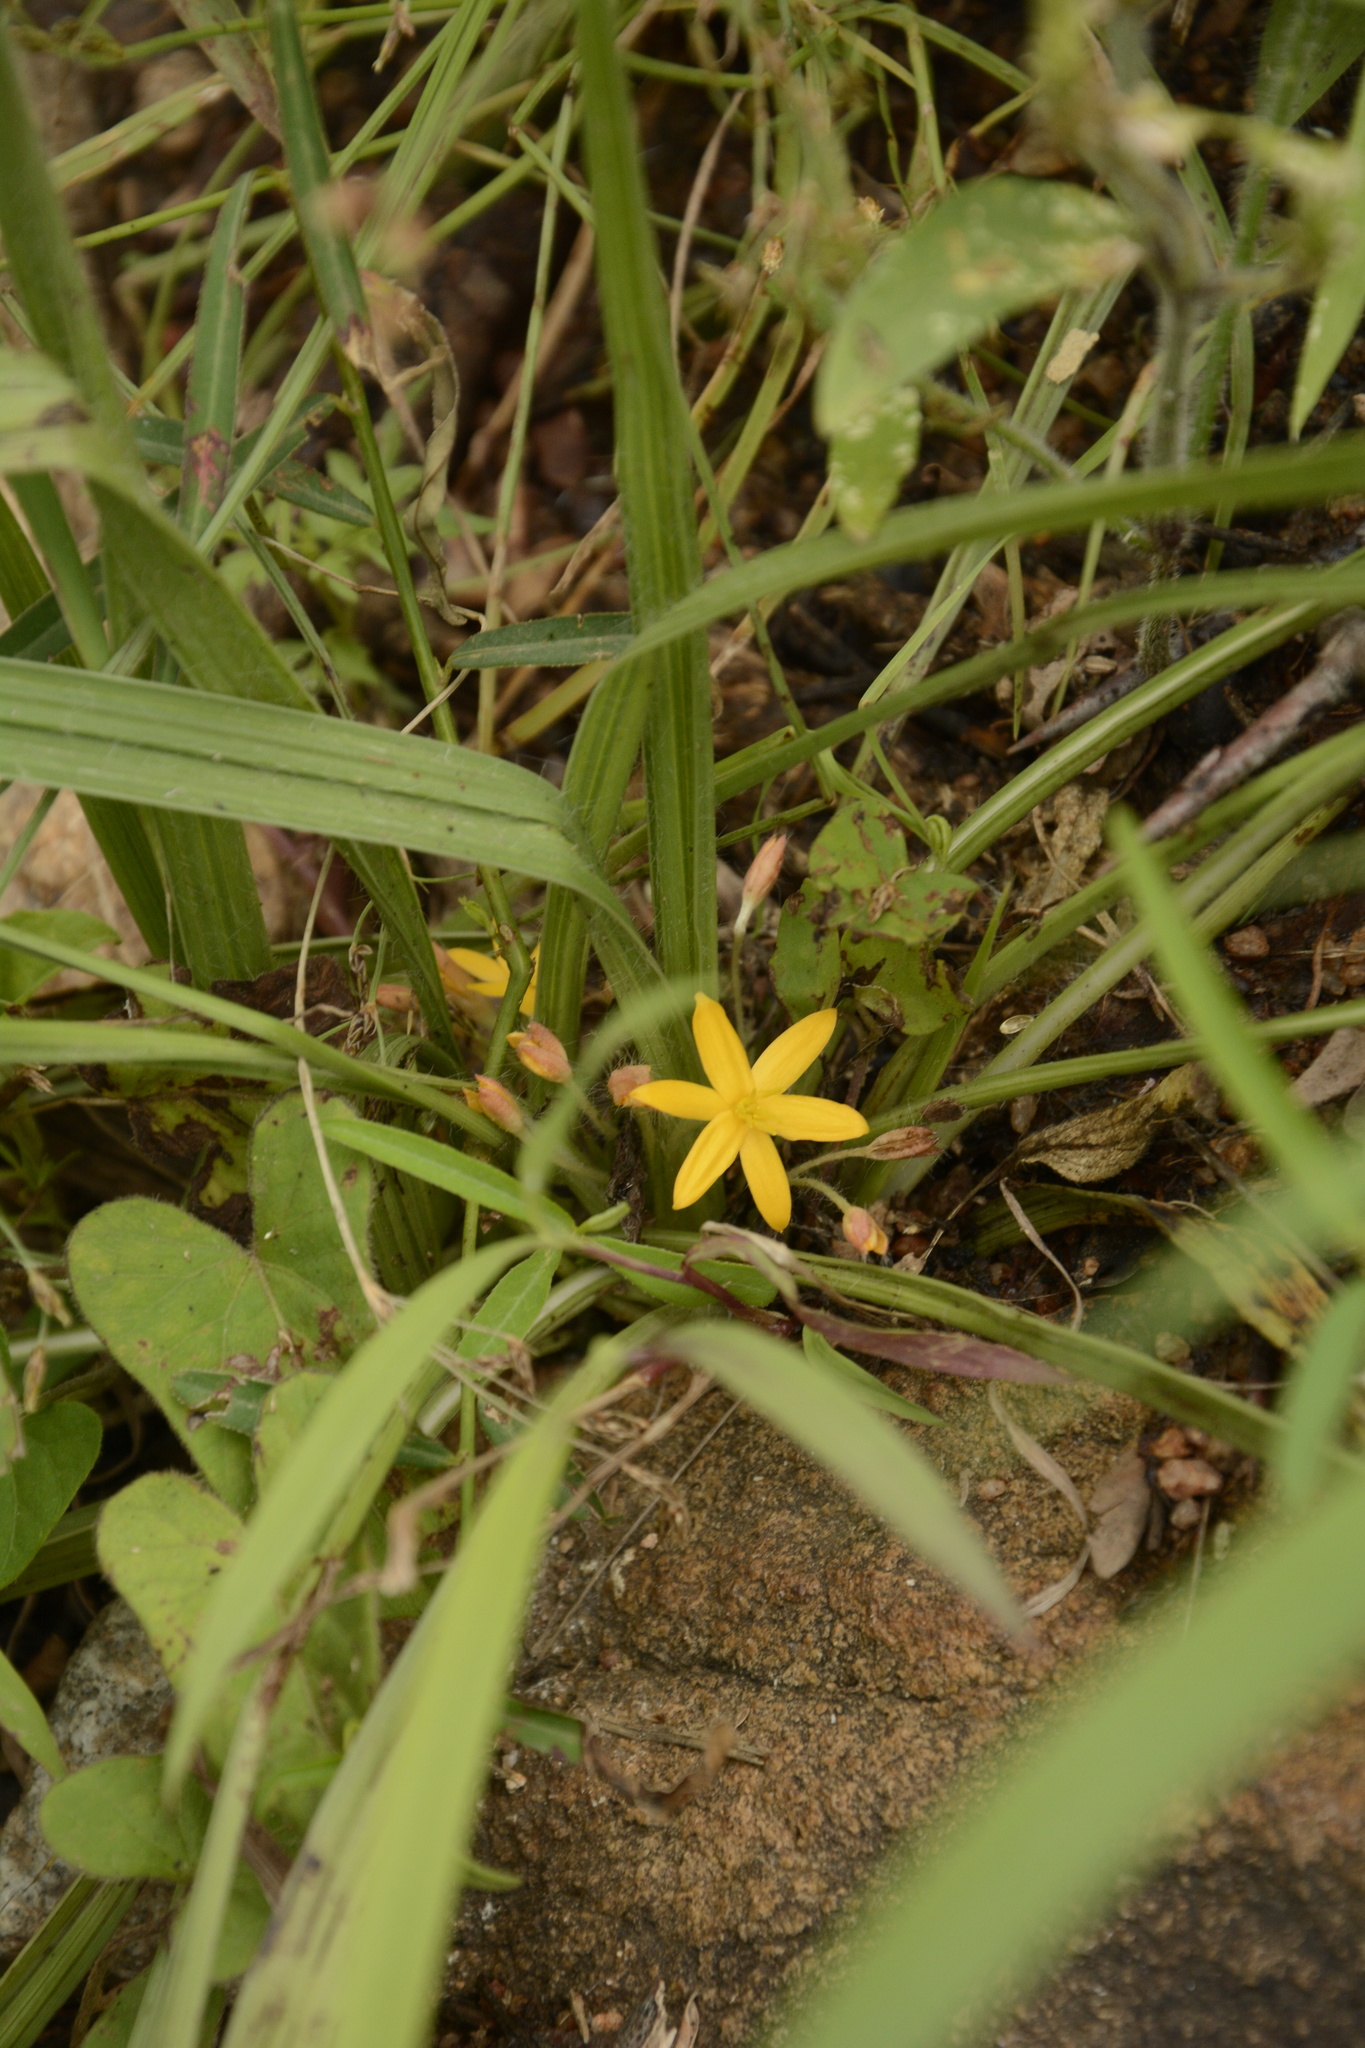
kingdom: Plantae
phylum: Tracheophyta
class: Liliopsida
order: Asparagales
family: Hypoxidaceae
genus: Curculigo
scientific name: Curculigo orchioides
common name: Golden eye-grass
